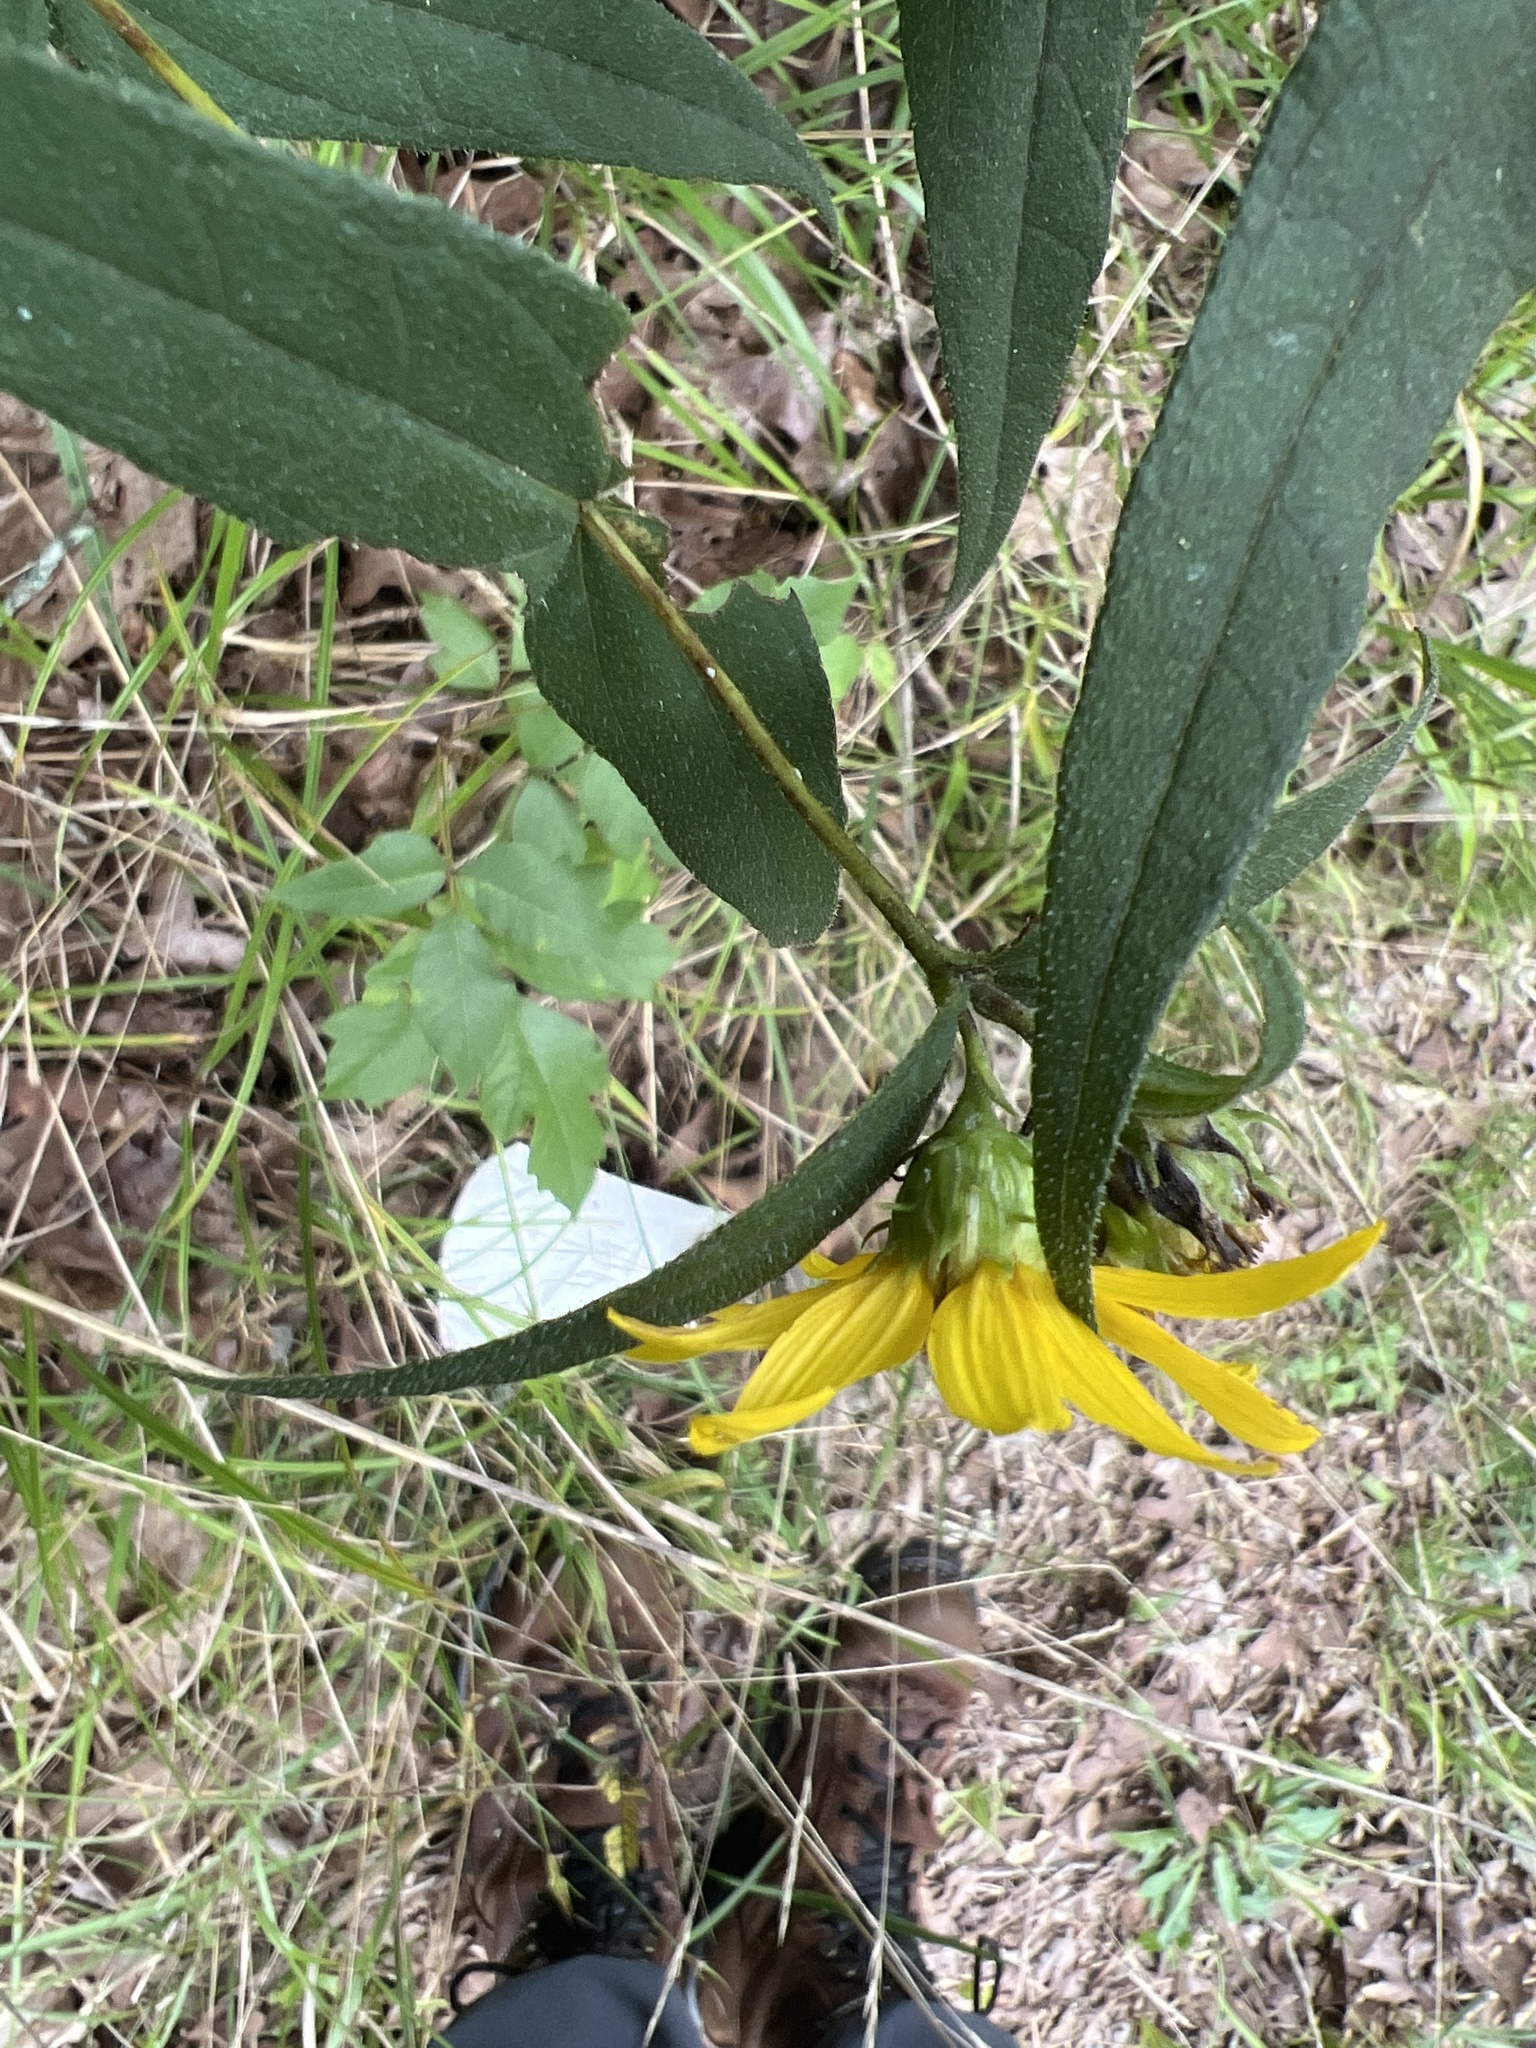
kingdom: Plantae
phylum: Tracheophyta
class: Magnoliopsida
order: Asterales
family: Asteraceae
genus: Helianthus
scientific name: Helianthus divaricatus
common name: Divergent sunflower
